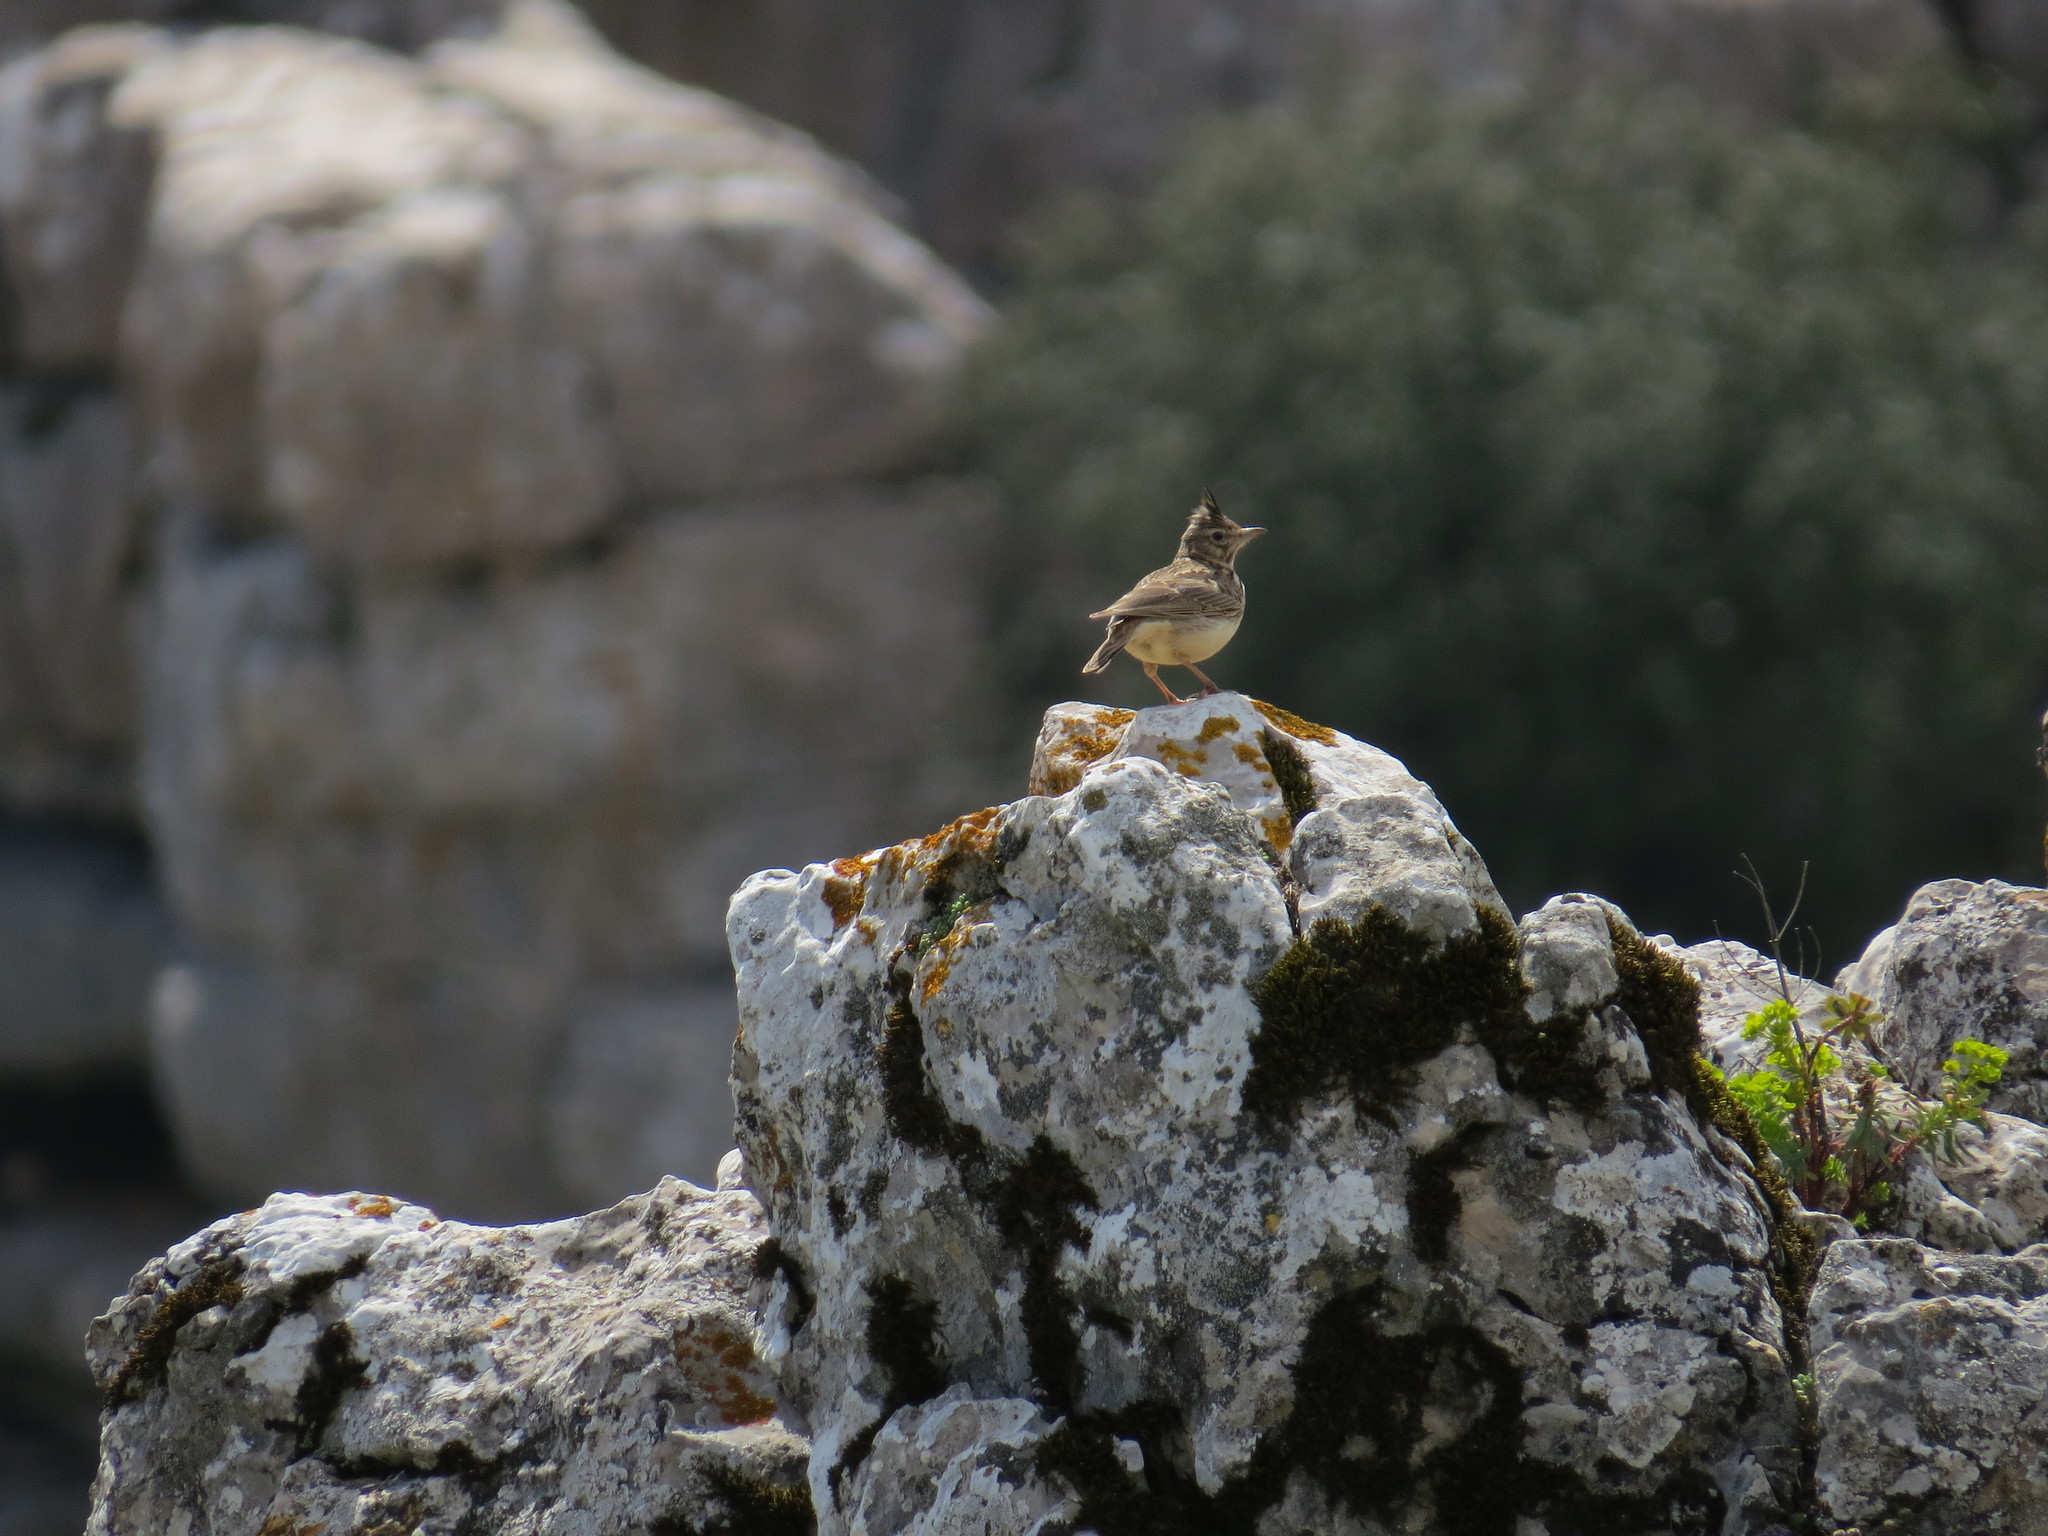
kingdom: Animalia
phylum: Chordata
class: Aves
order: Passeriformes
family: Alaudidae
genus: Galerida
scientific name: Galerida theklae
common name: Thekla lark
